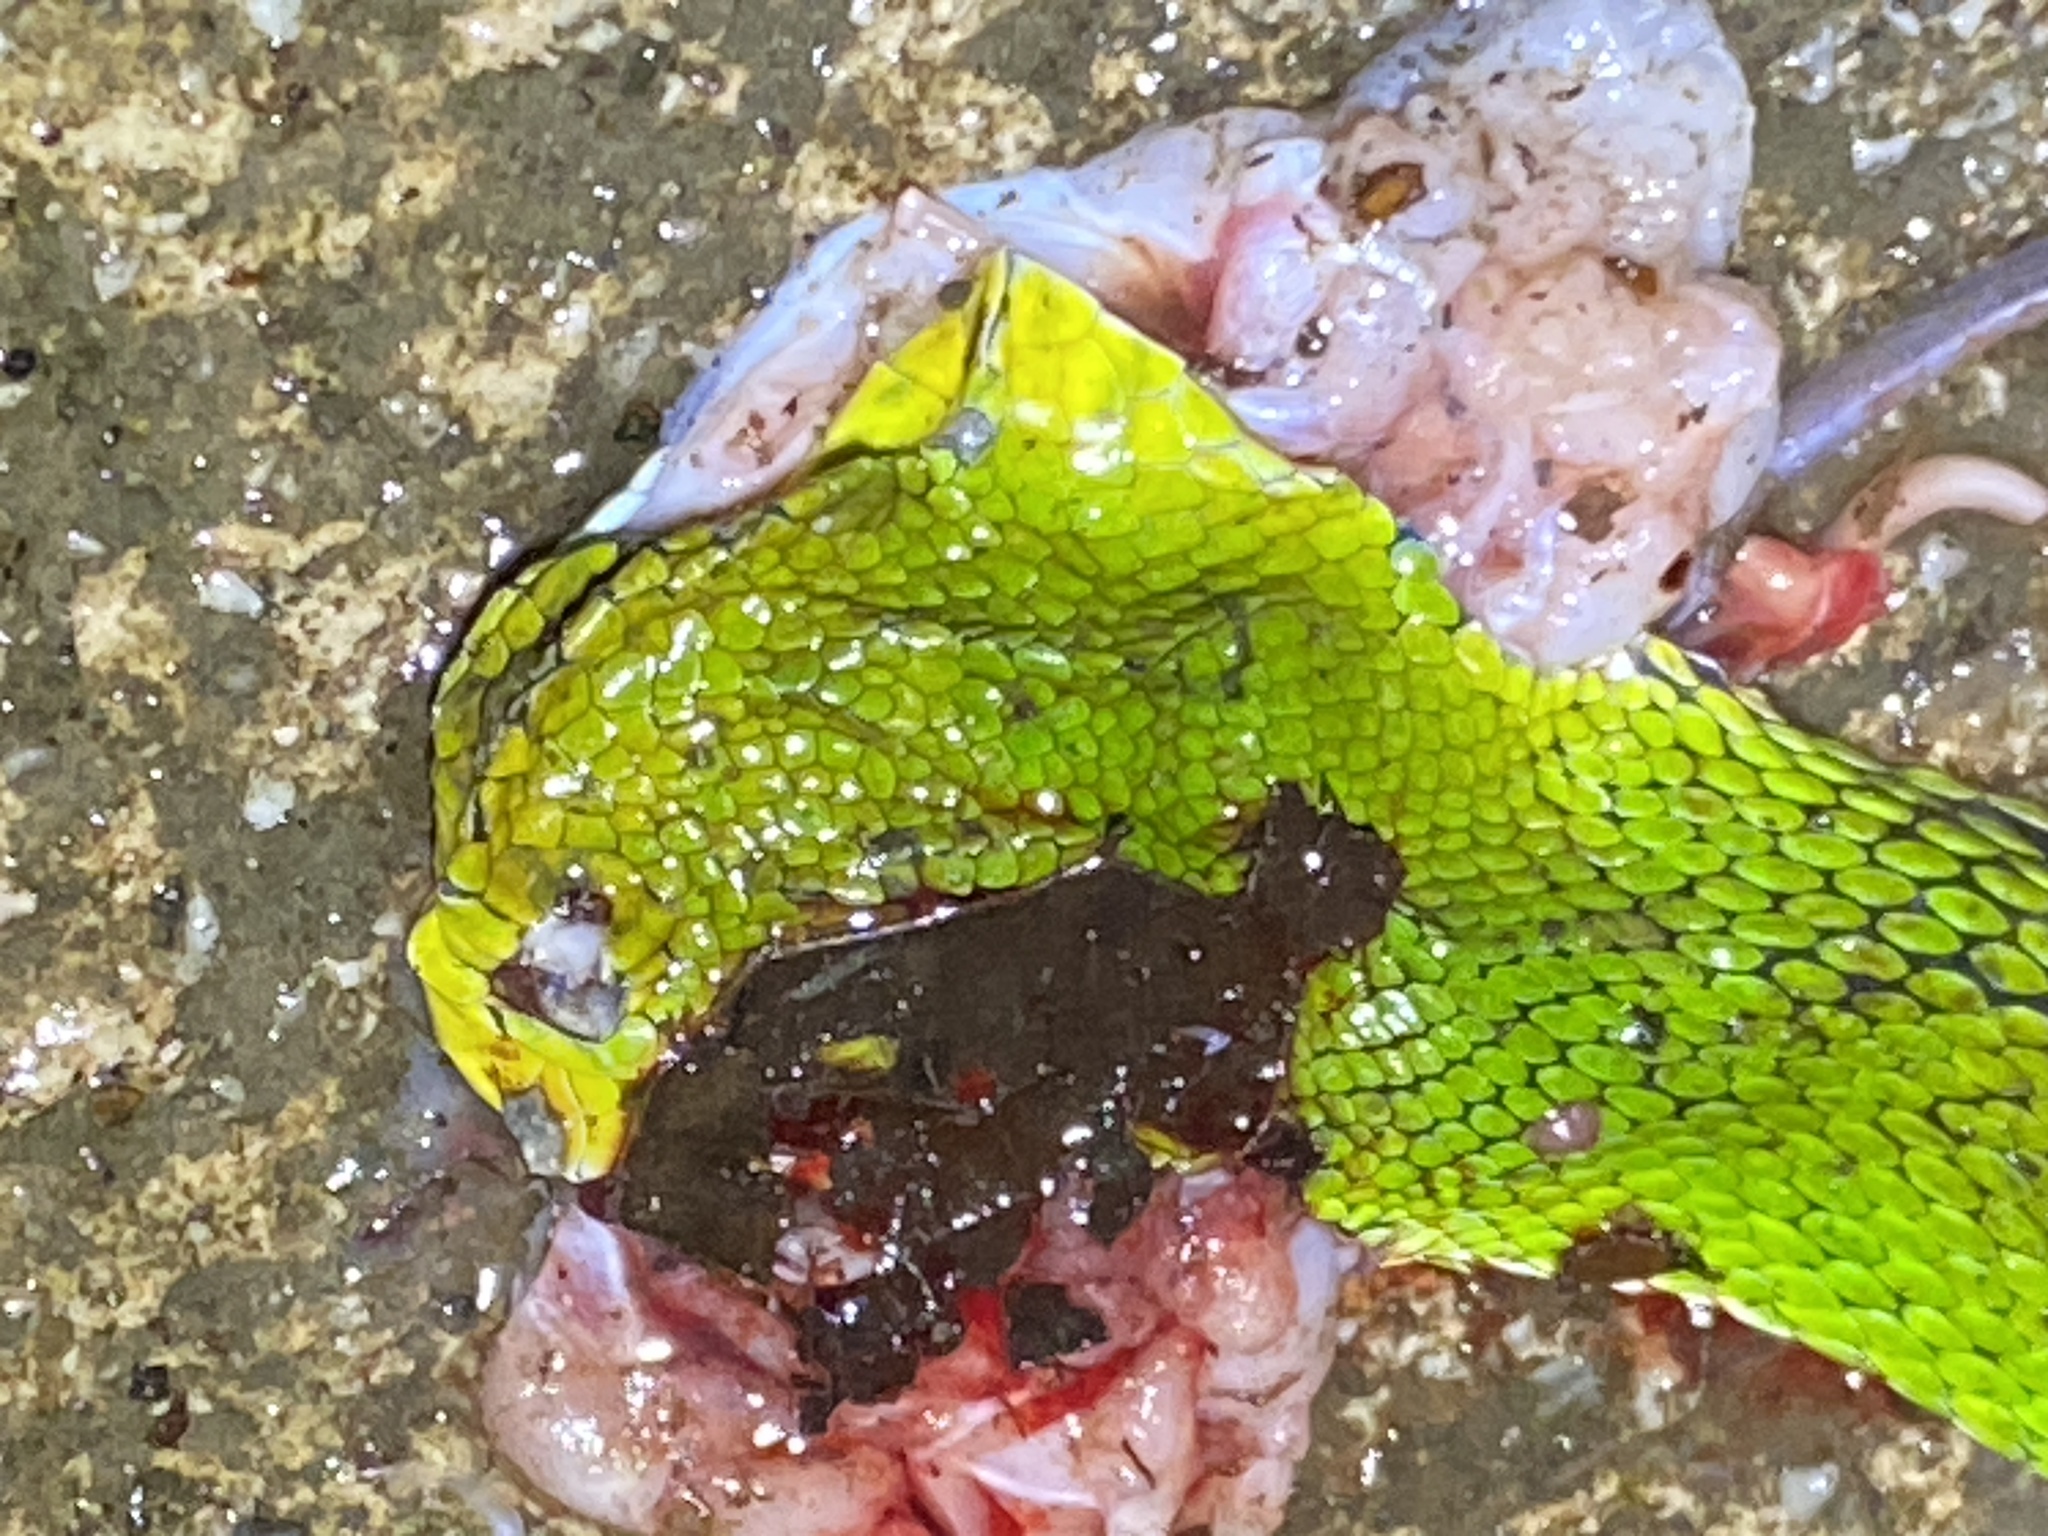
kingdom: Animalia
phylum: Chordata
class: Squamata
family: Viperidae
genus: Trimeresurus
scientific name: Trimeresurus gumprechti
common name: Gumprecht's pit viper
